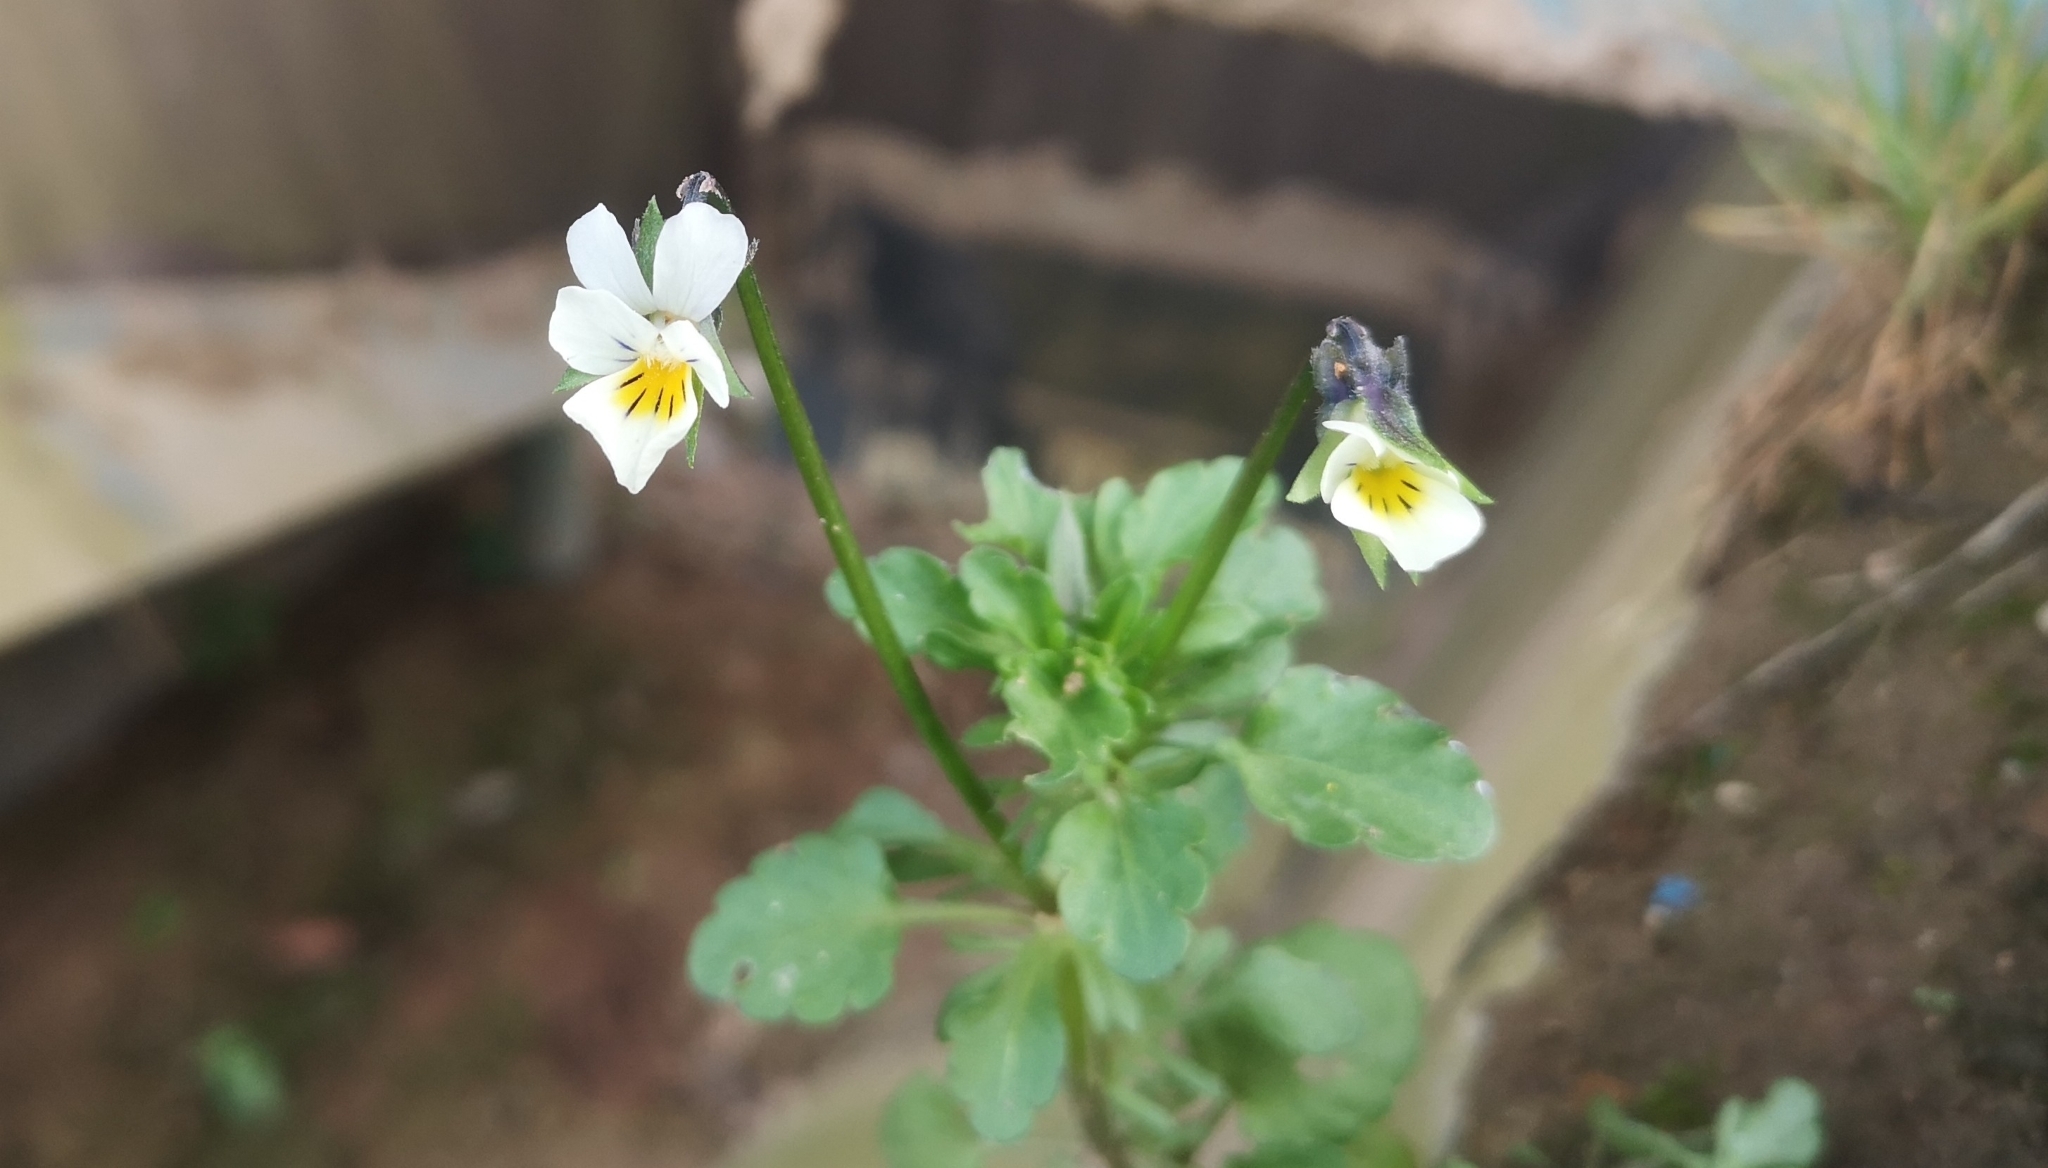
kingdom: Plantae
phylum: Tracheophyta
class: Magnoliopsida
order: Malpighiales
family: Violaceae
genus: Viola
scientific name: Viola arvensis
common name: Field pansy
